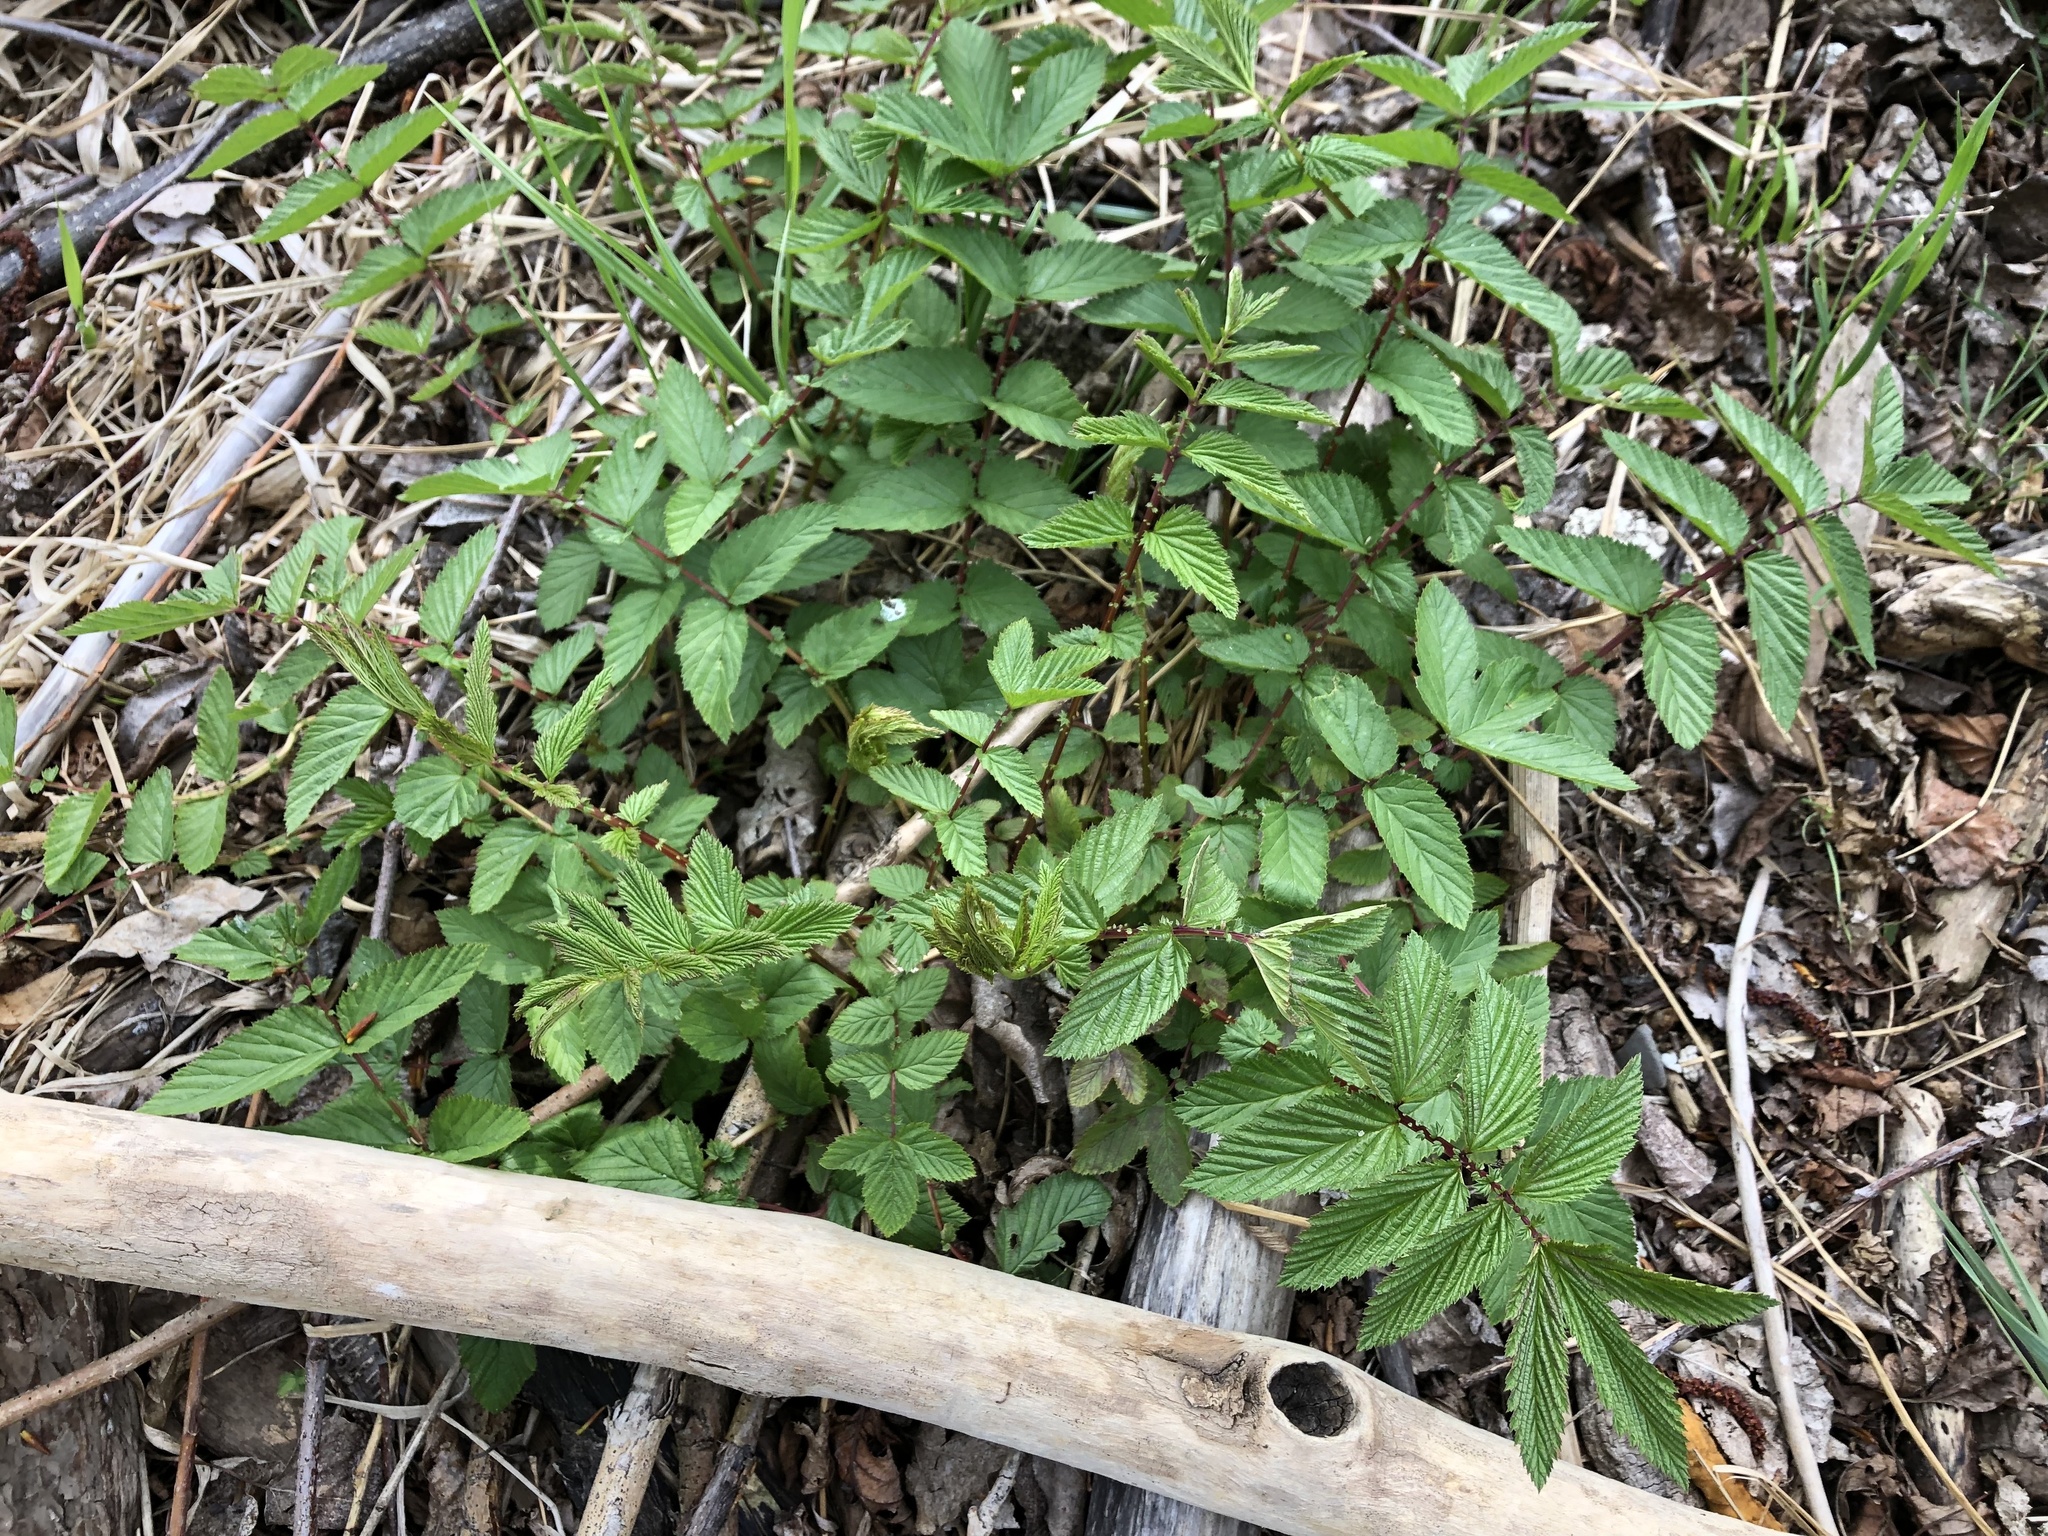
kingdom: Plantae
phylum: Tracheophyta
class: Magnoliopsida
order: Rosales
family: Rosaceae
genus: Filipendula
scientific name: Filipendula ulmaria
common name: Meadowsweet
